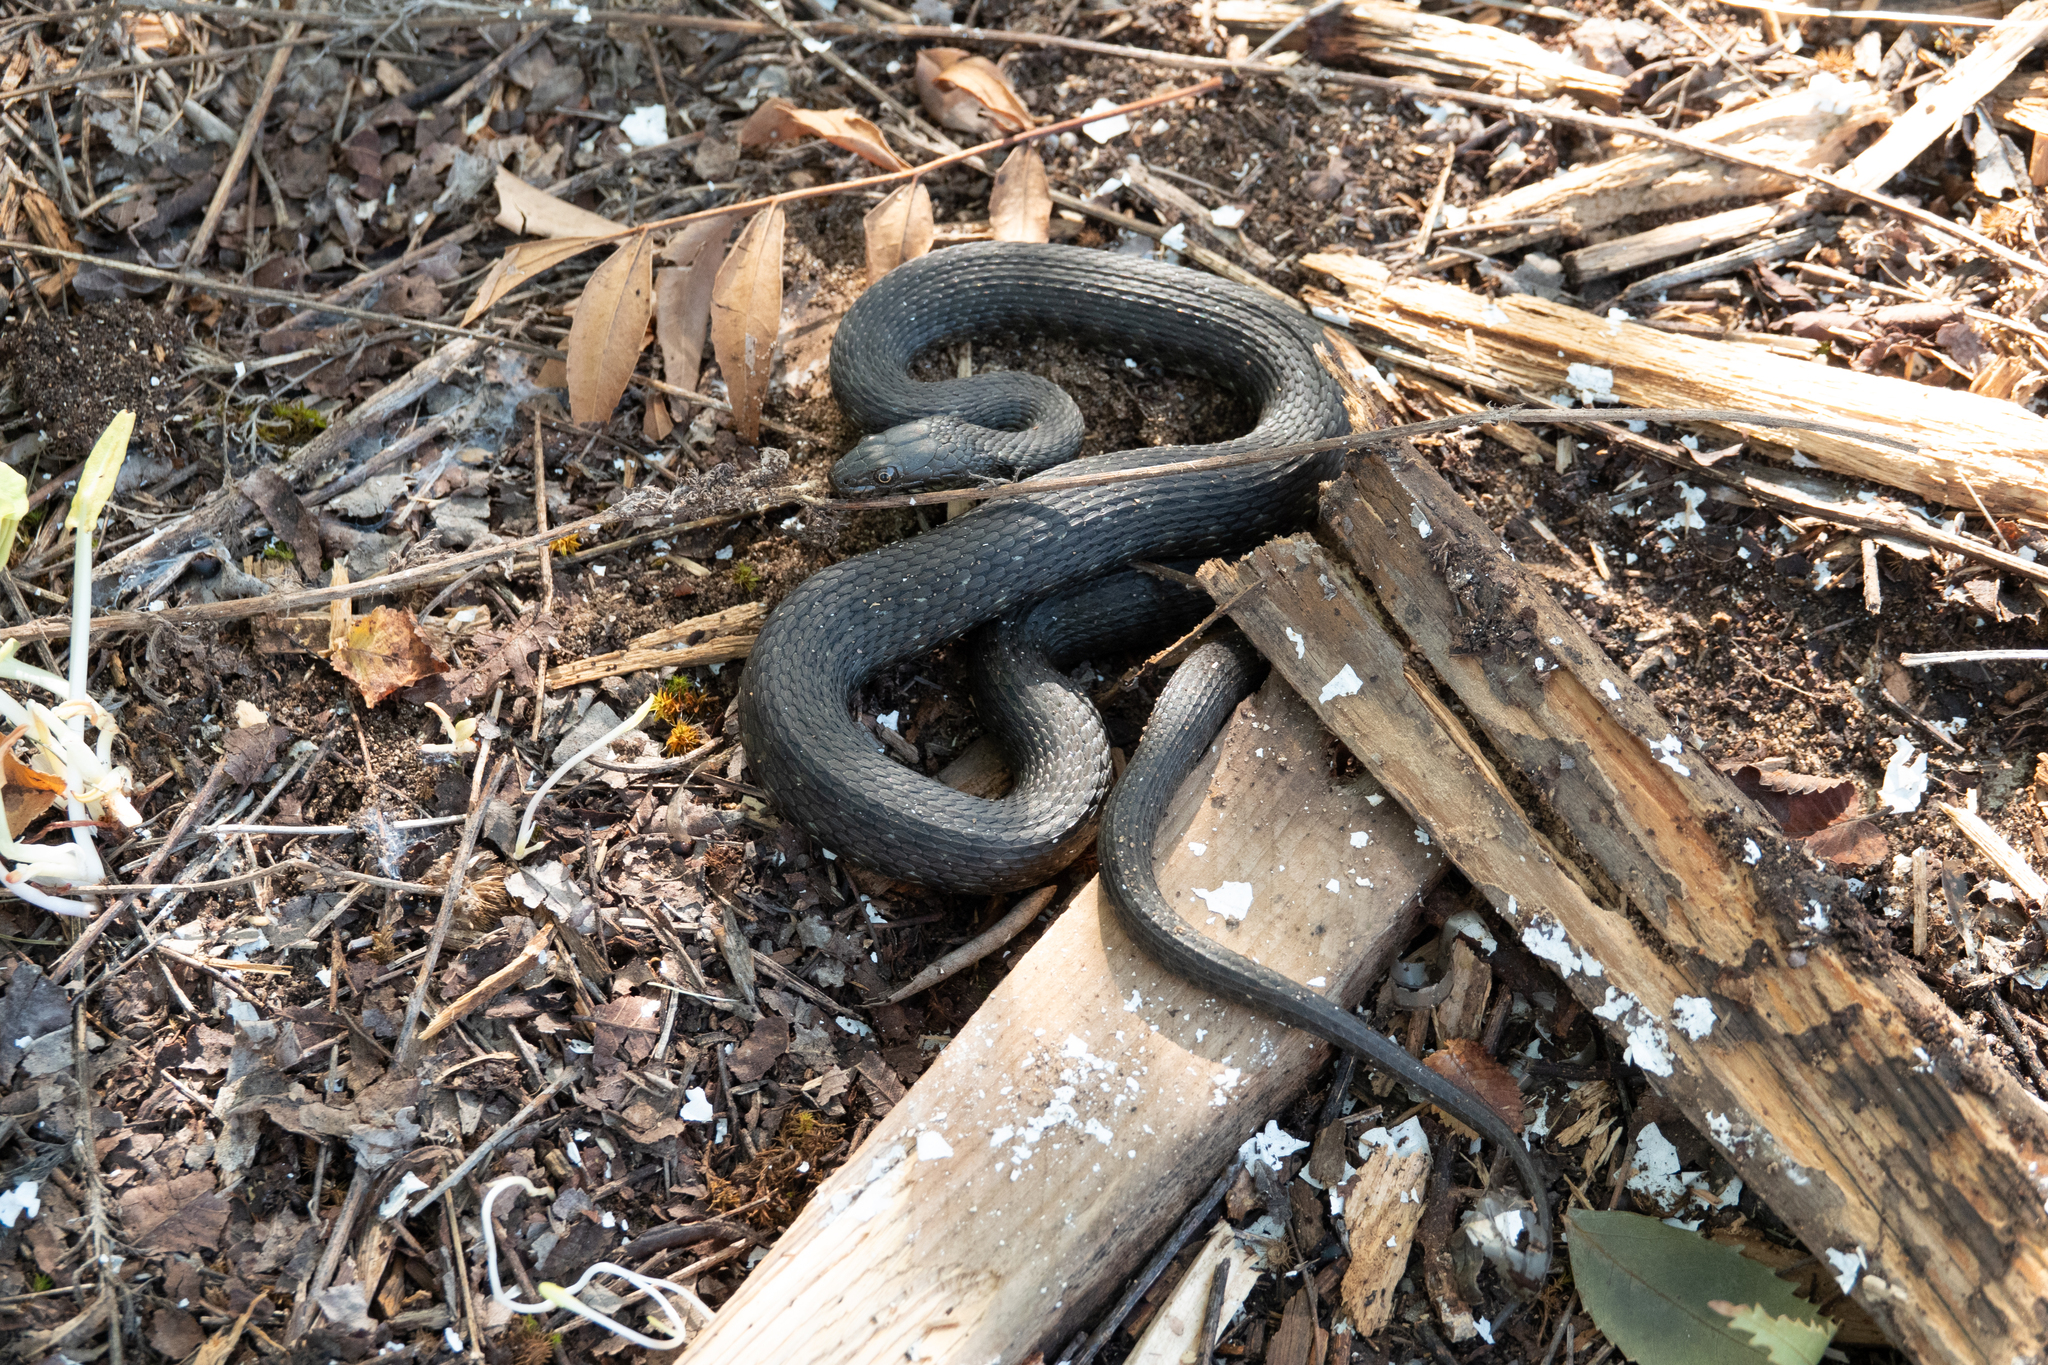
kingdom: Animalia
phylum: Chordata
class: Squamata
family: Colubridae
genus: Natrix
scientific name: Natrix tessellata
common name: Dice snake
